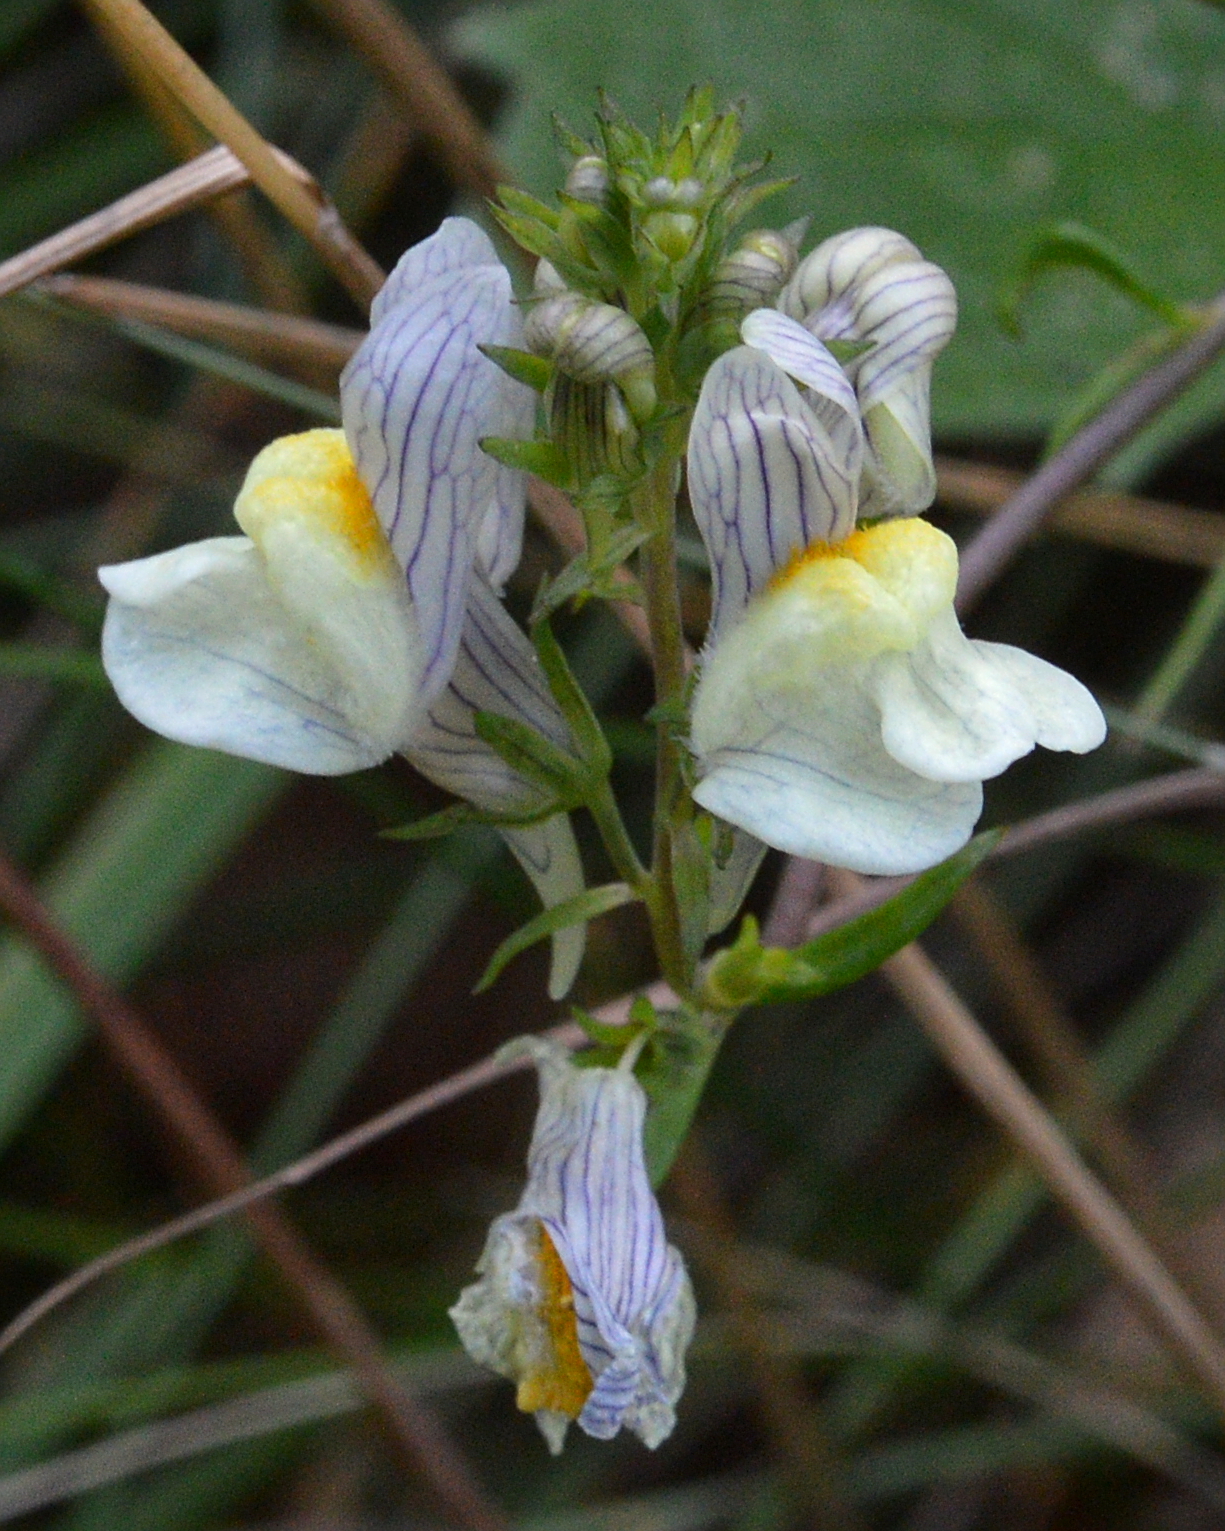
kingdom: Plantae
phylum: Tracheophyta
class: Magnoliopsida
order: Lamiales
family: Plantaginaceae
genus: Linaria
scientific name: Linaria repens
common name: Pale toadflax
